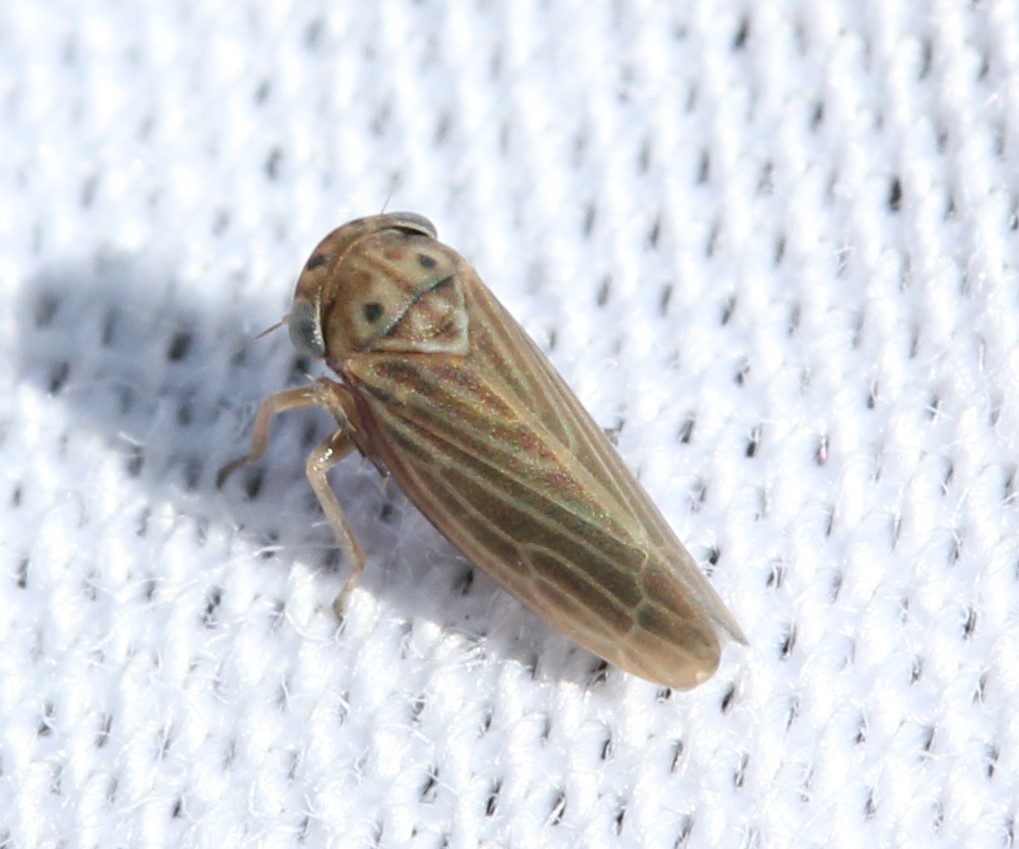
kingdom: Animalia
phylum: Arthropoda
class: Insecta
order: Hemiptera
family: Cicadellidae
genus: Agalliota
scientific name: Agalliota quadripunctata
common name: The four-spotted clover leafhopper
